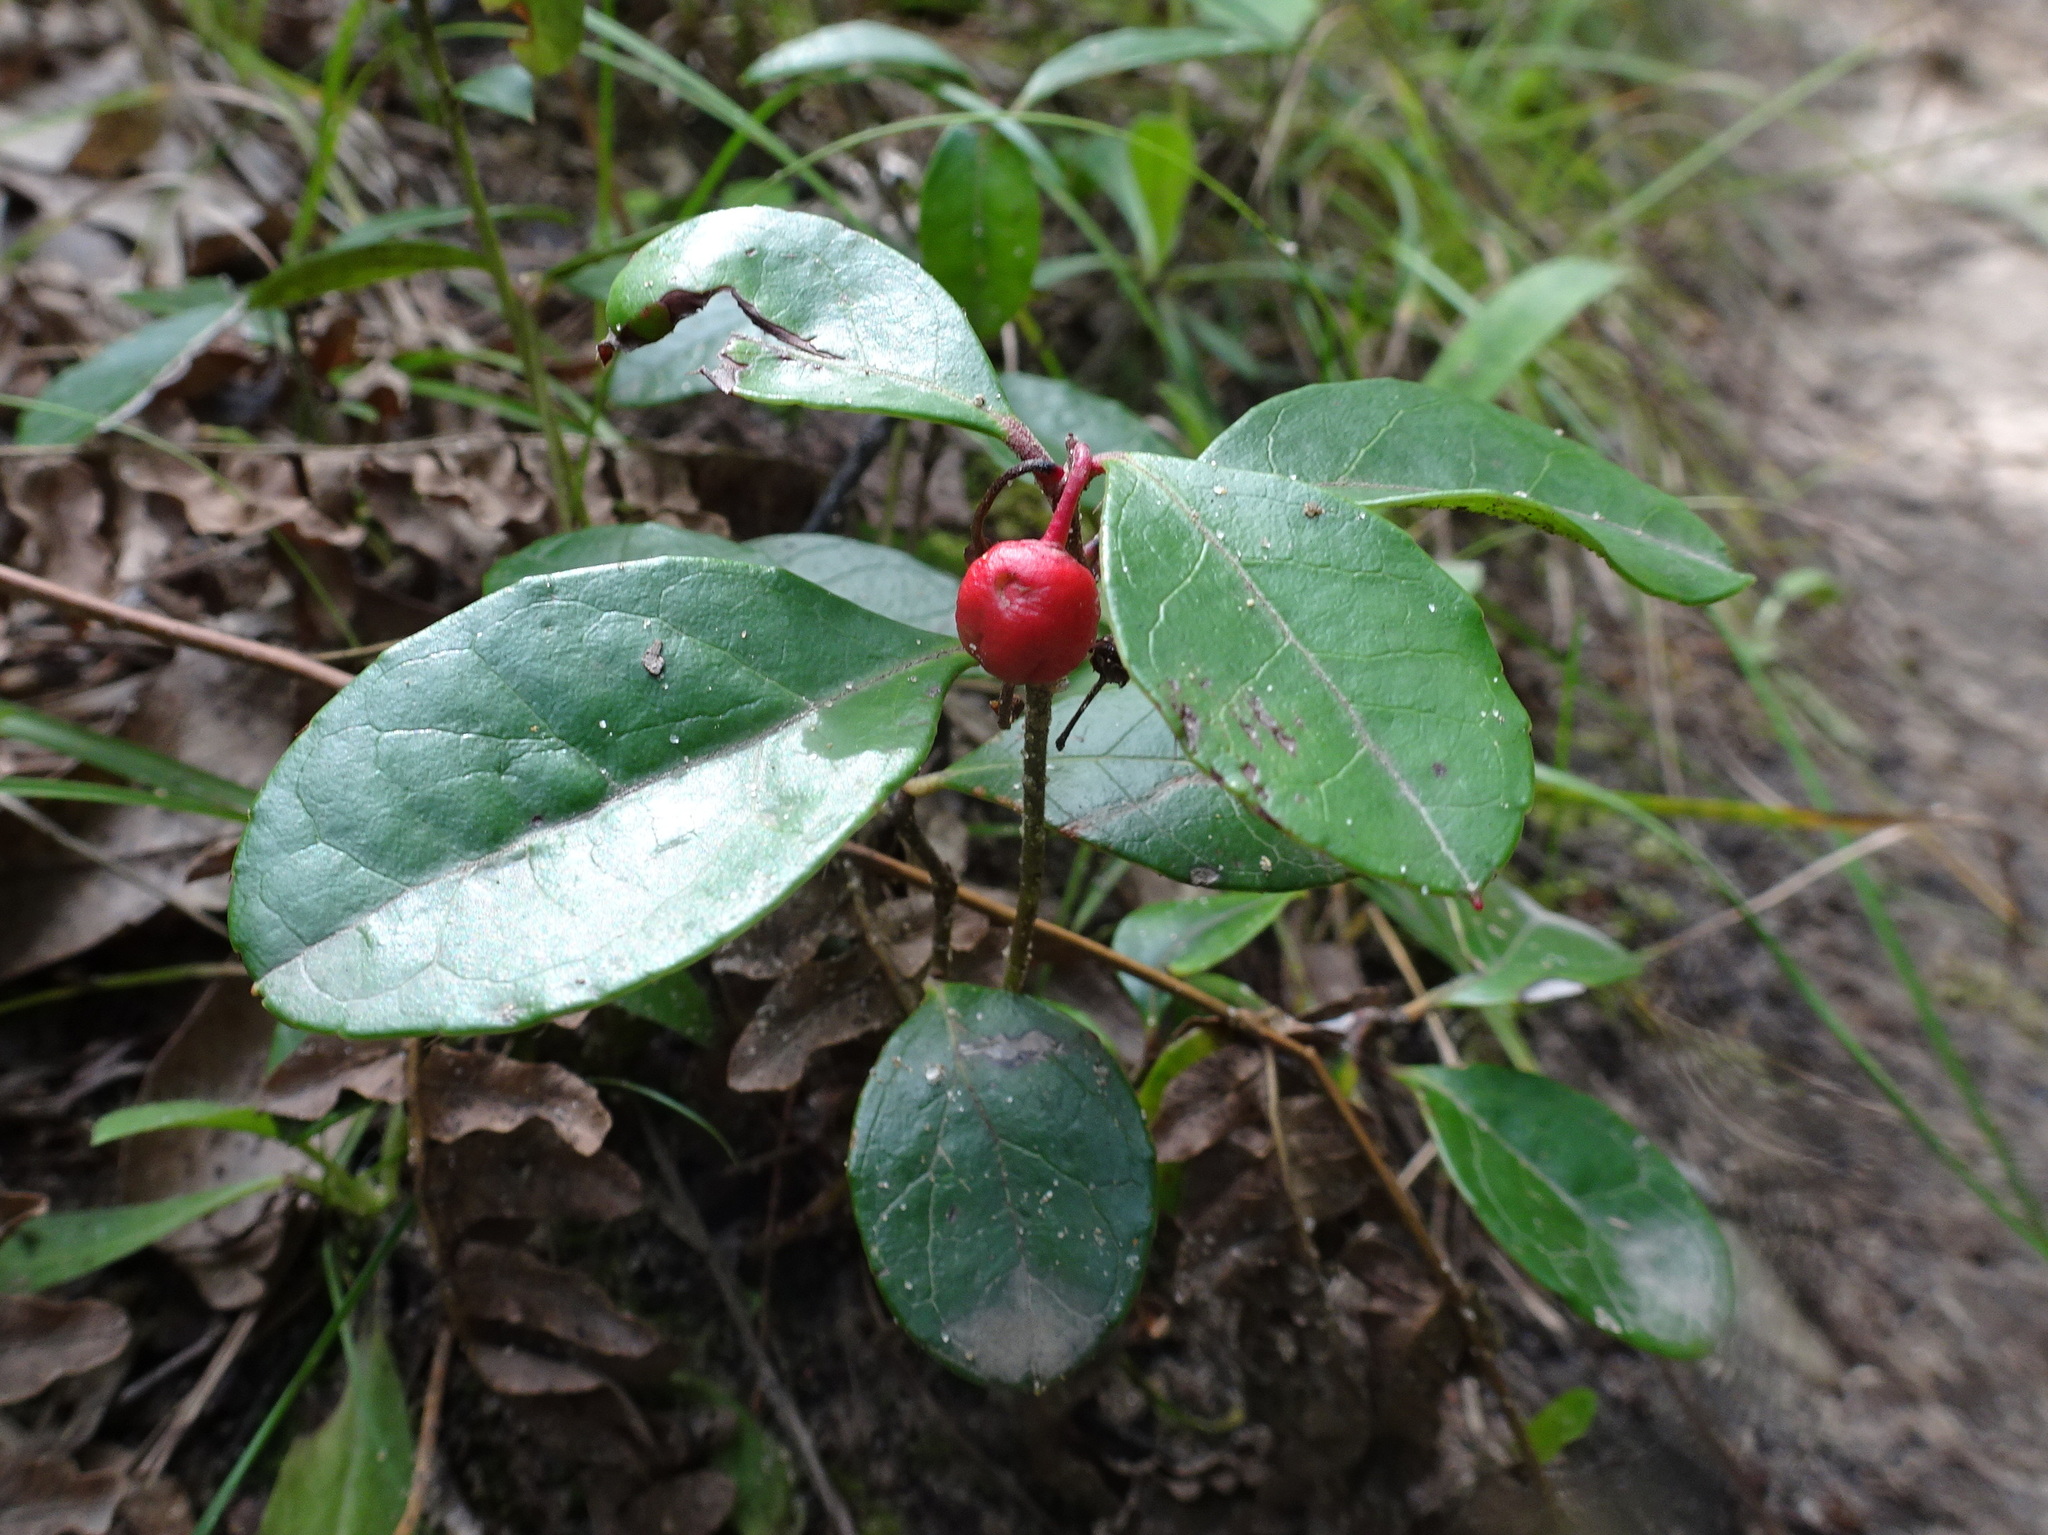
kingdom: Plantae
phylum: Tracheophyta
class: Magnoliopsida
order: Ericales
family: Ericaceae
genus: Gaultheria
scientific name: Gaultheria procumbens
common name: Checkerberry
